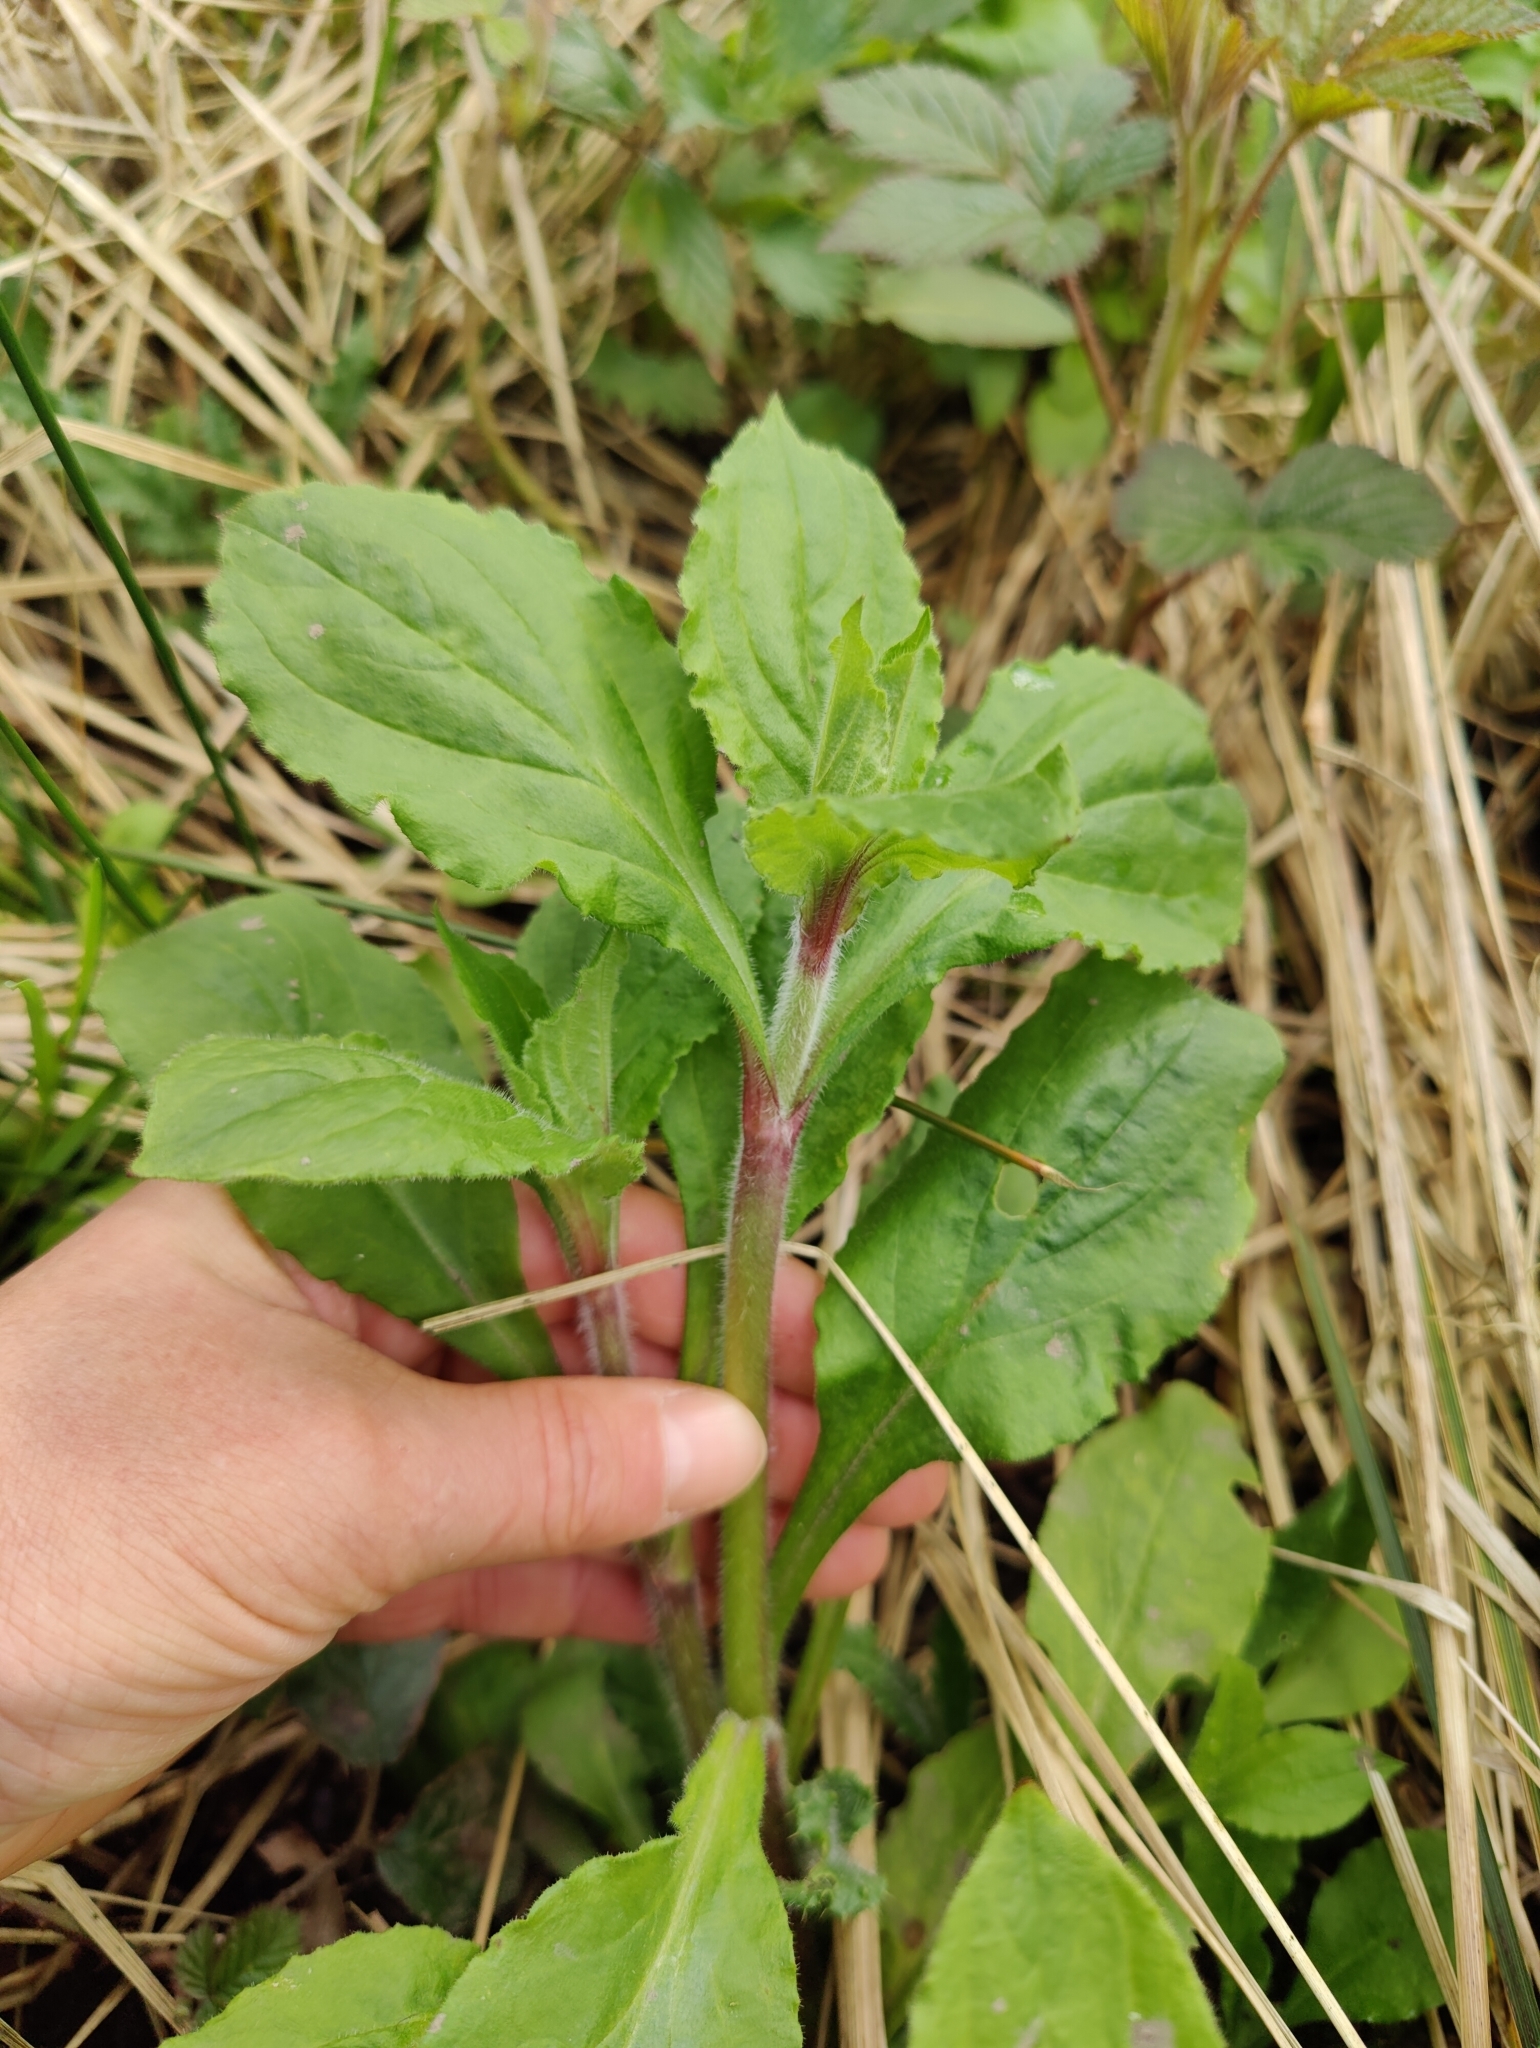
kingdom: Plantae
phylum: Tracheophyta
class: Magnoliopsida
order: Caryophyllales
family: Caryophyllaceae
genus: Silene
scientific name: Silene dioica
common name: Red campion
